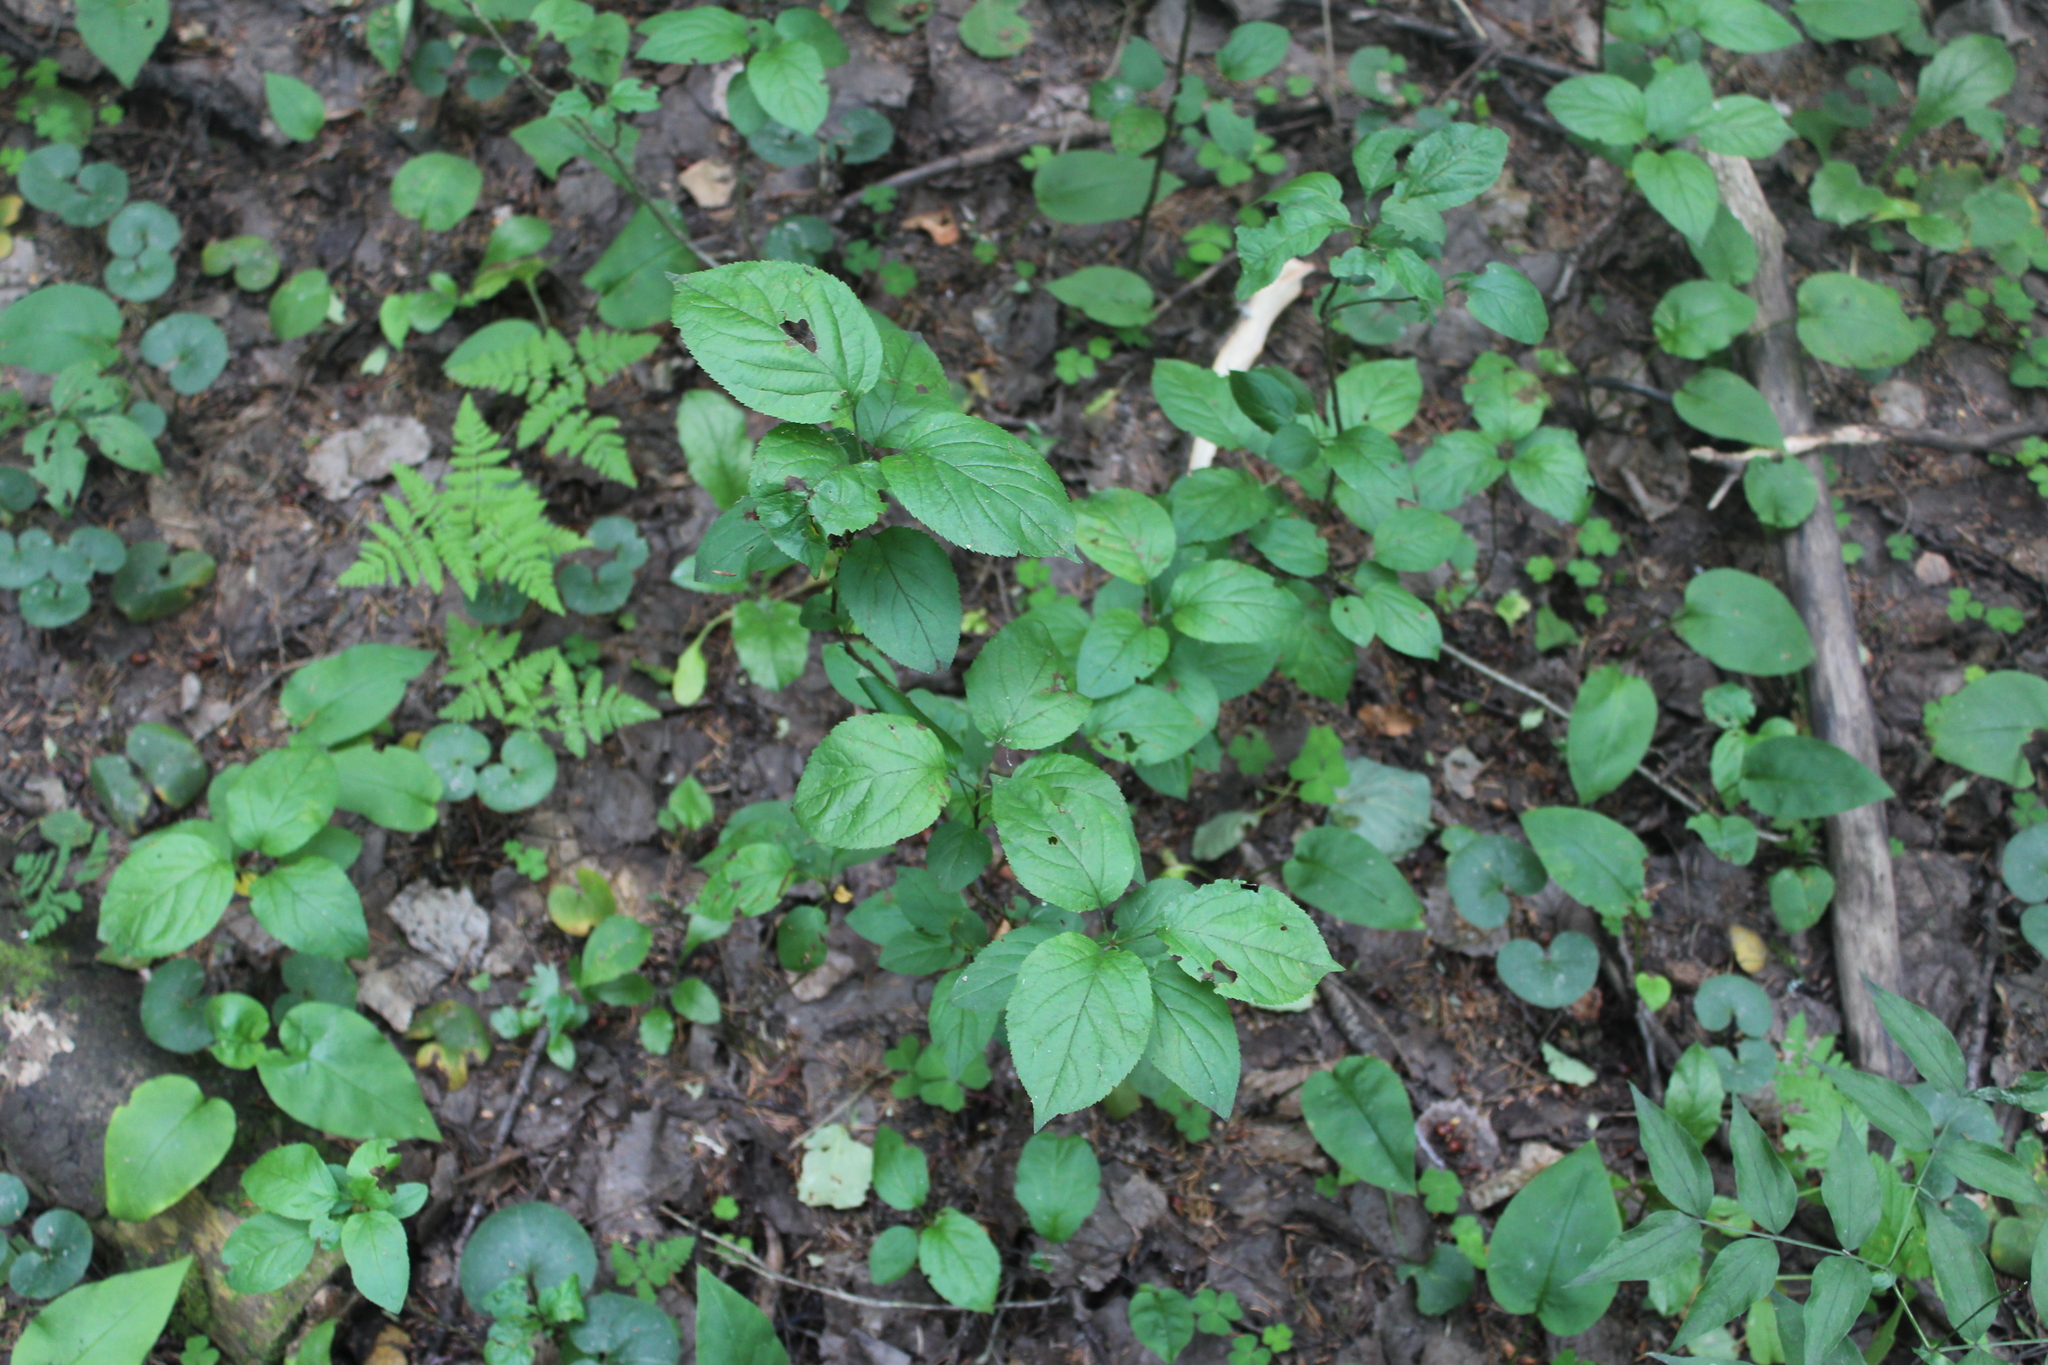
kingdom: Plantae
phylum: Tracheophyta
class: Magnoliopsida
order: Rosales
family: Rosaceae
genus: Malus
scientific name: Malus domestica
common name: Apple
